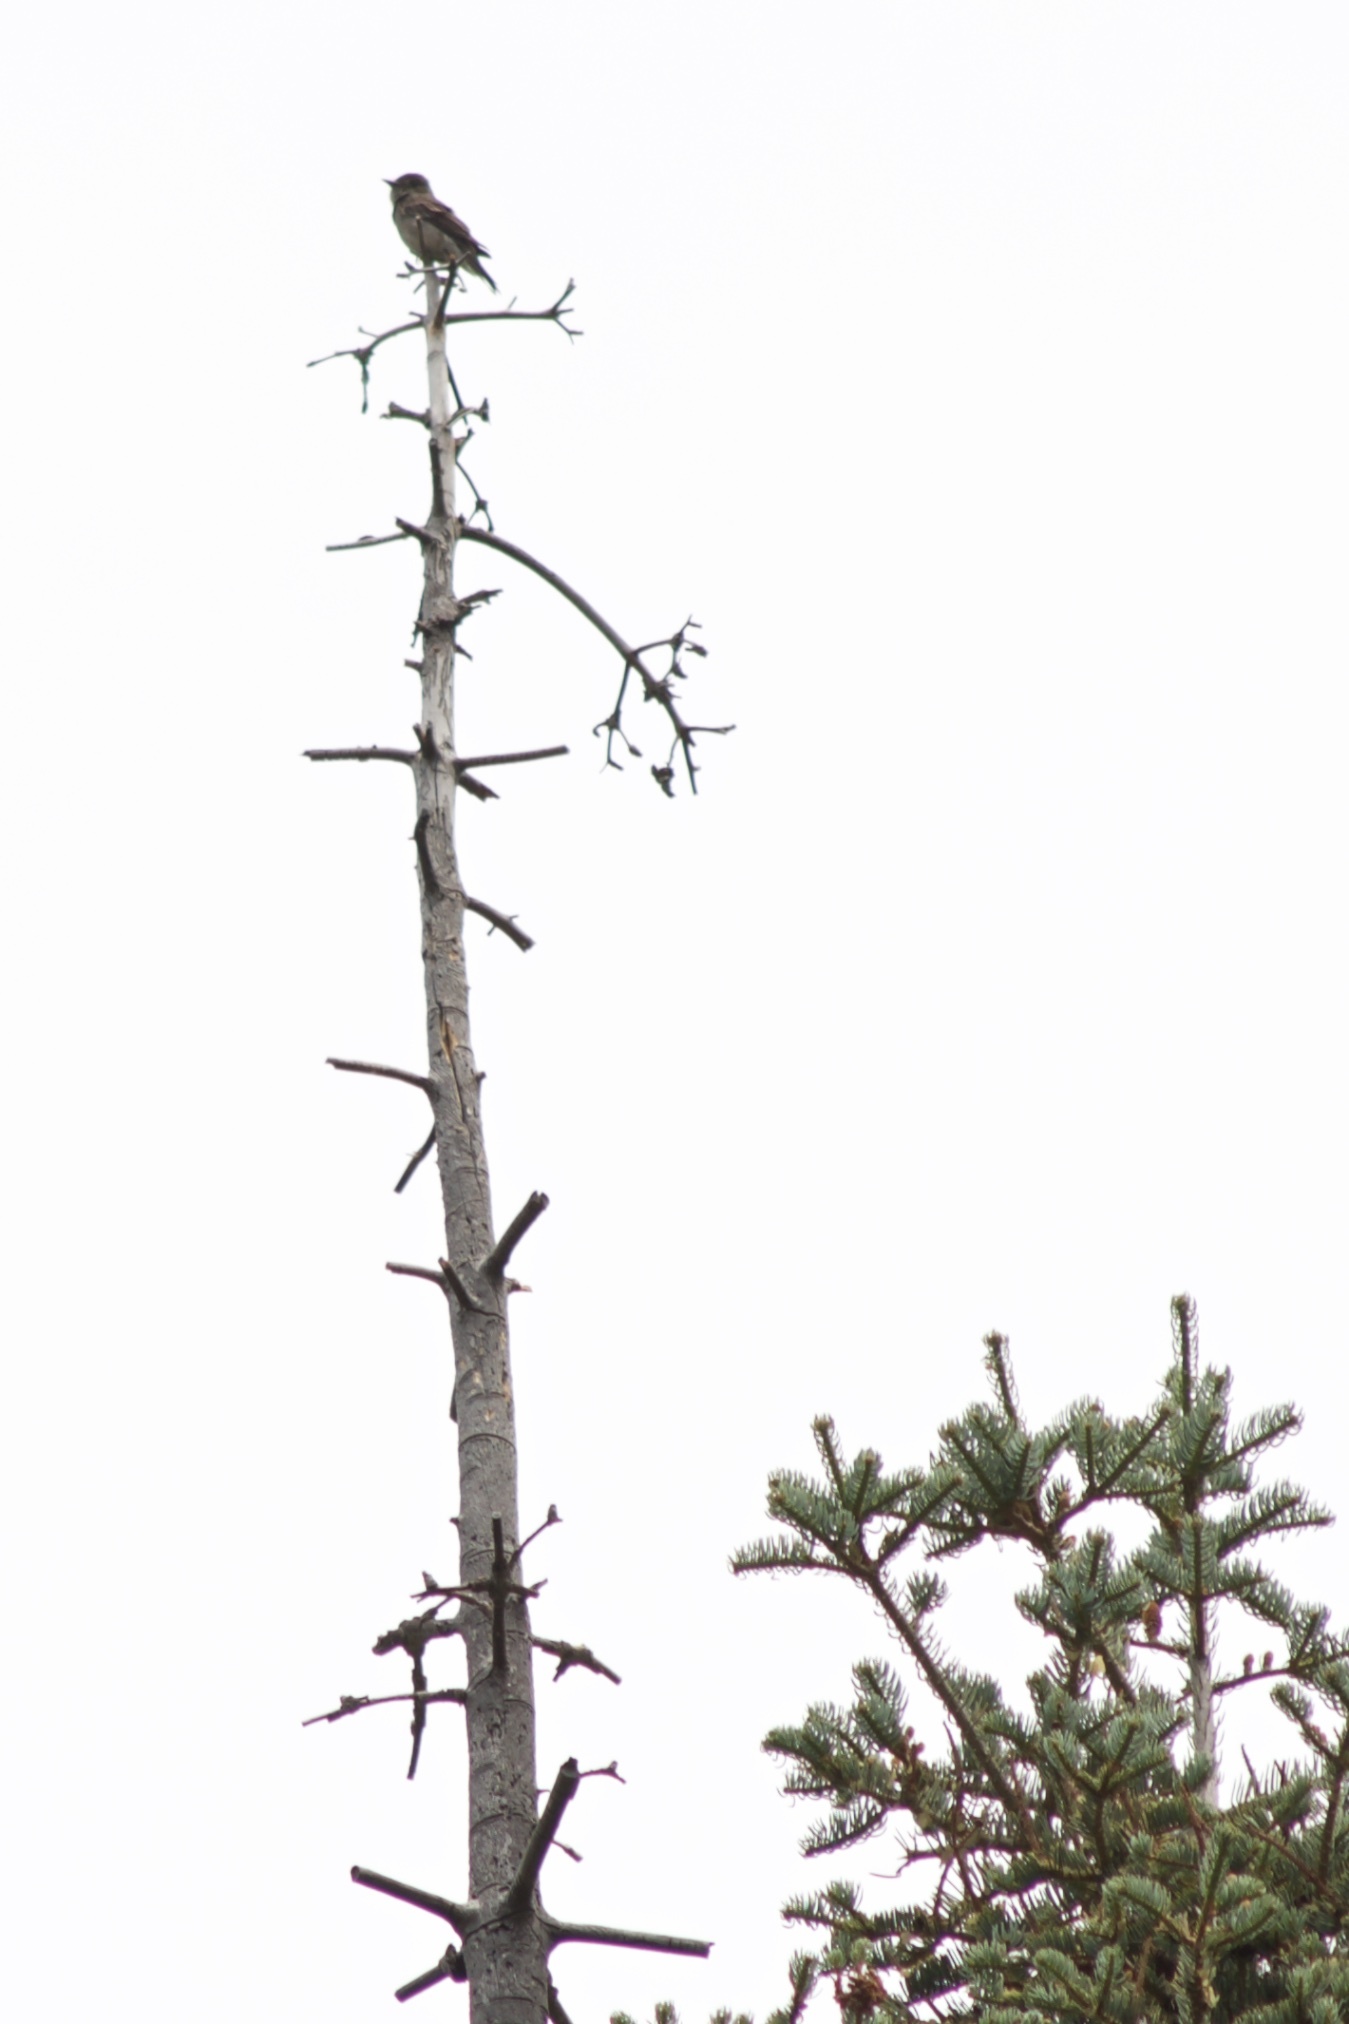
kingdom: Animalia
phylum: Chordata
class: Aves
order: Passeriformes
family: Tyrannidae
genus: Contopus
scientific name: Contopus sordidulus
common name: Western wood-pewee
